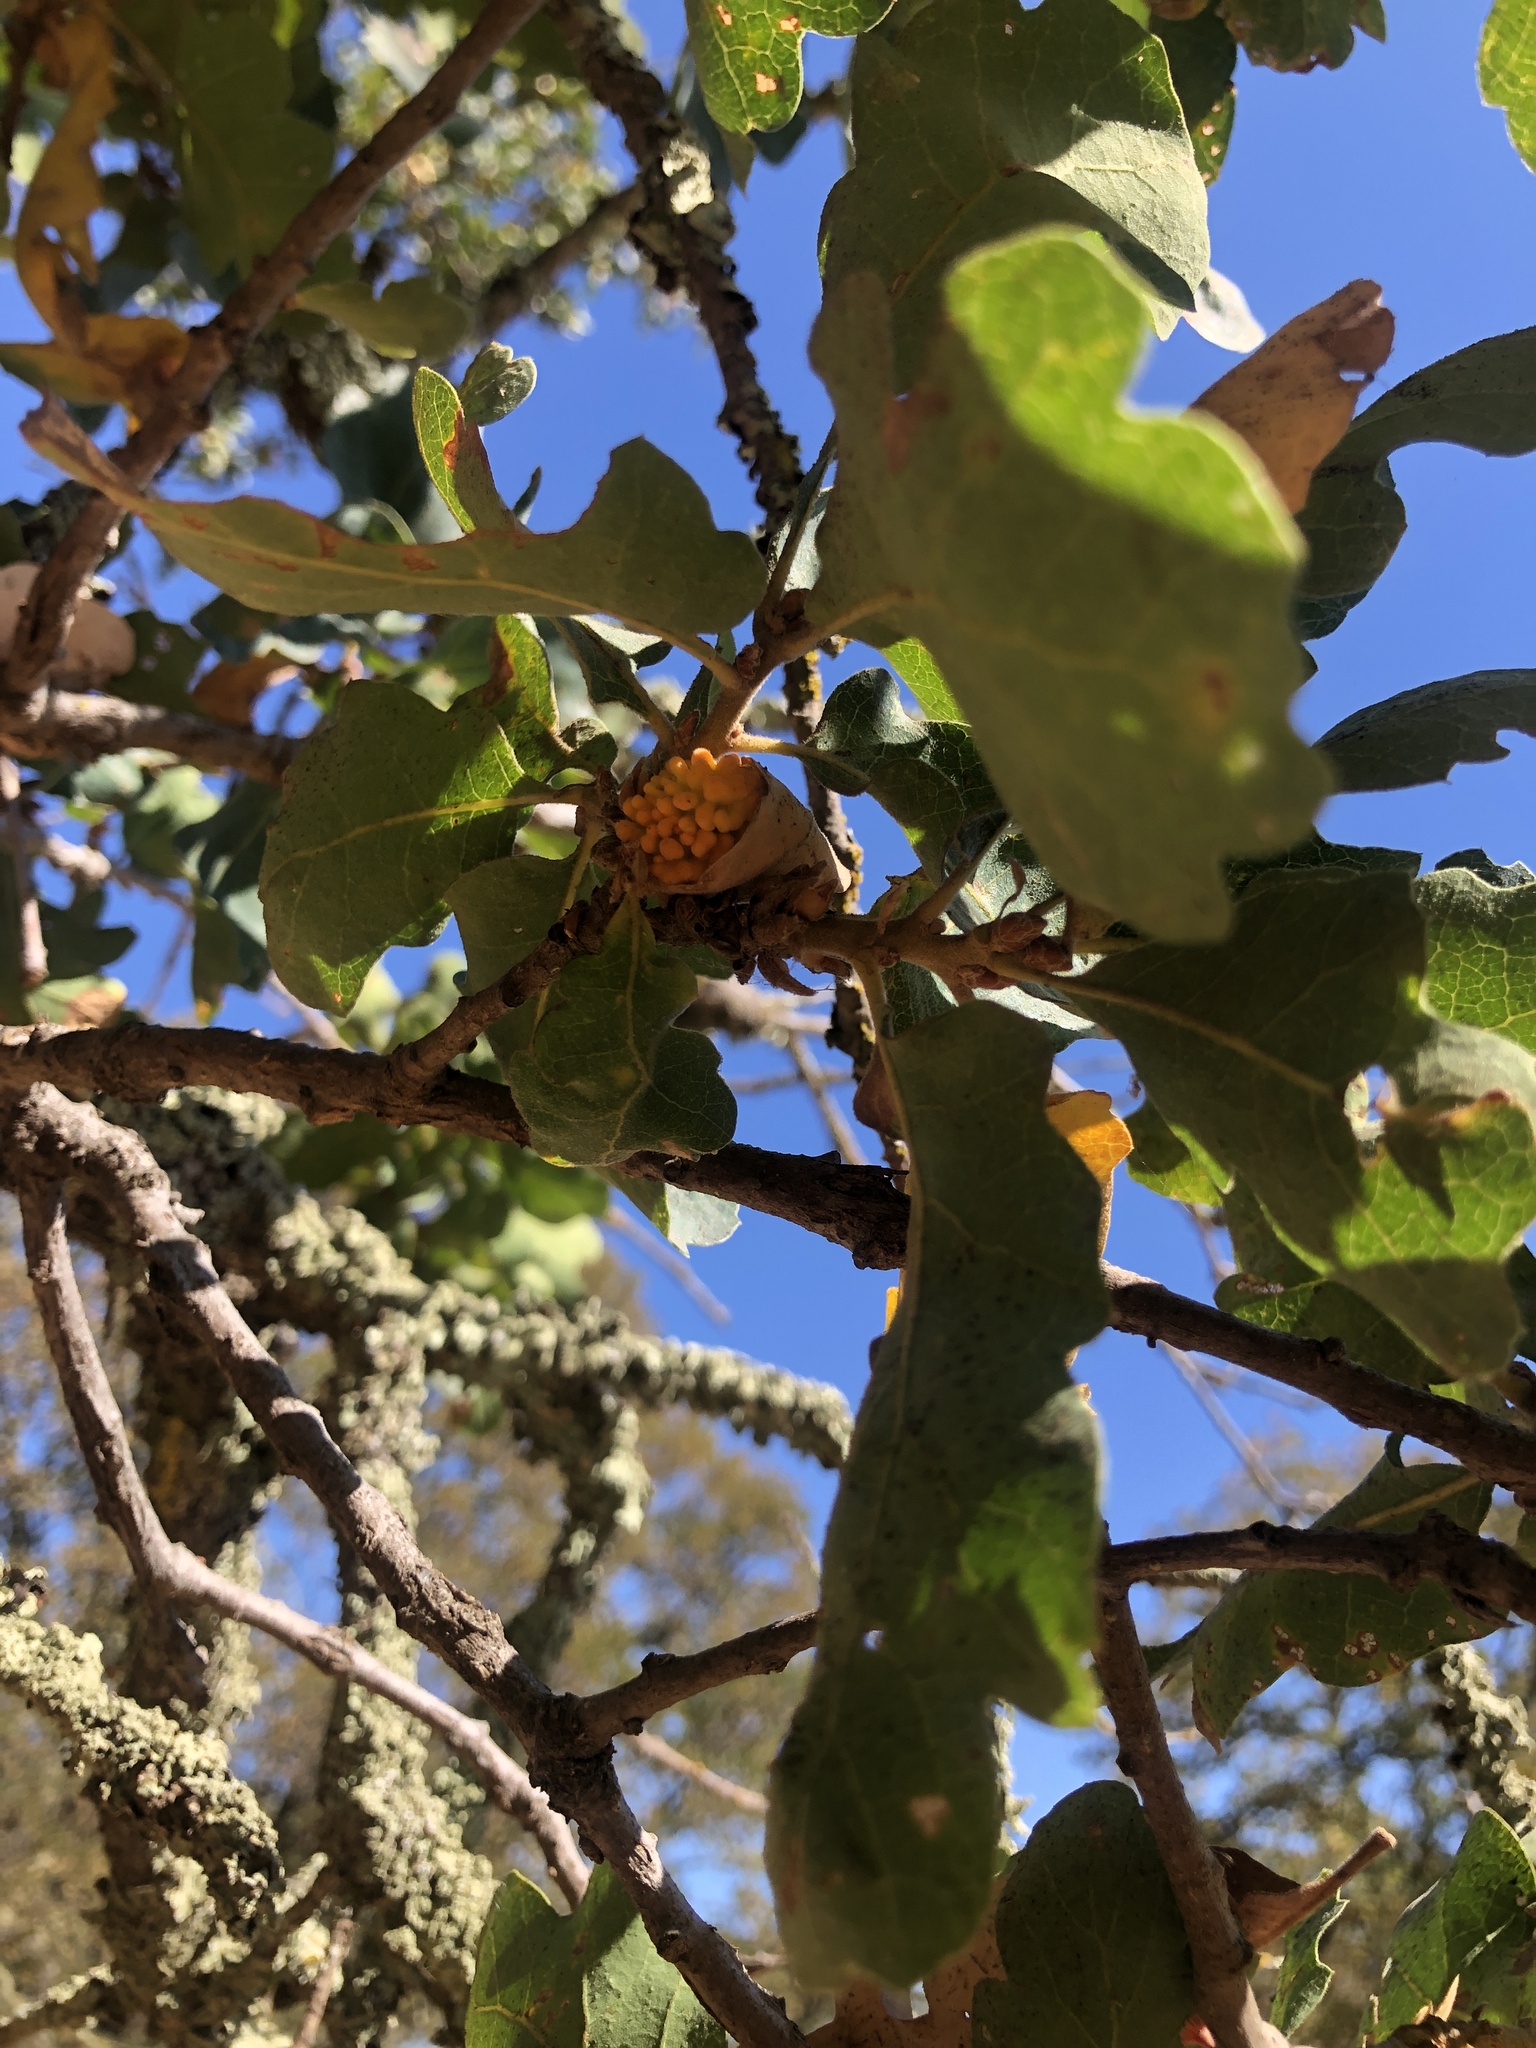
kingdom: Animalia
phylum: Arthropoda
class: Insecta
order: Hymenoptera
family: Cynipidae
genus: Burnettweldia
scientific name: Burnettweldia
